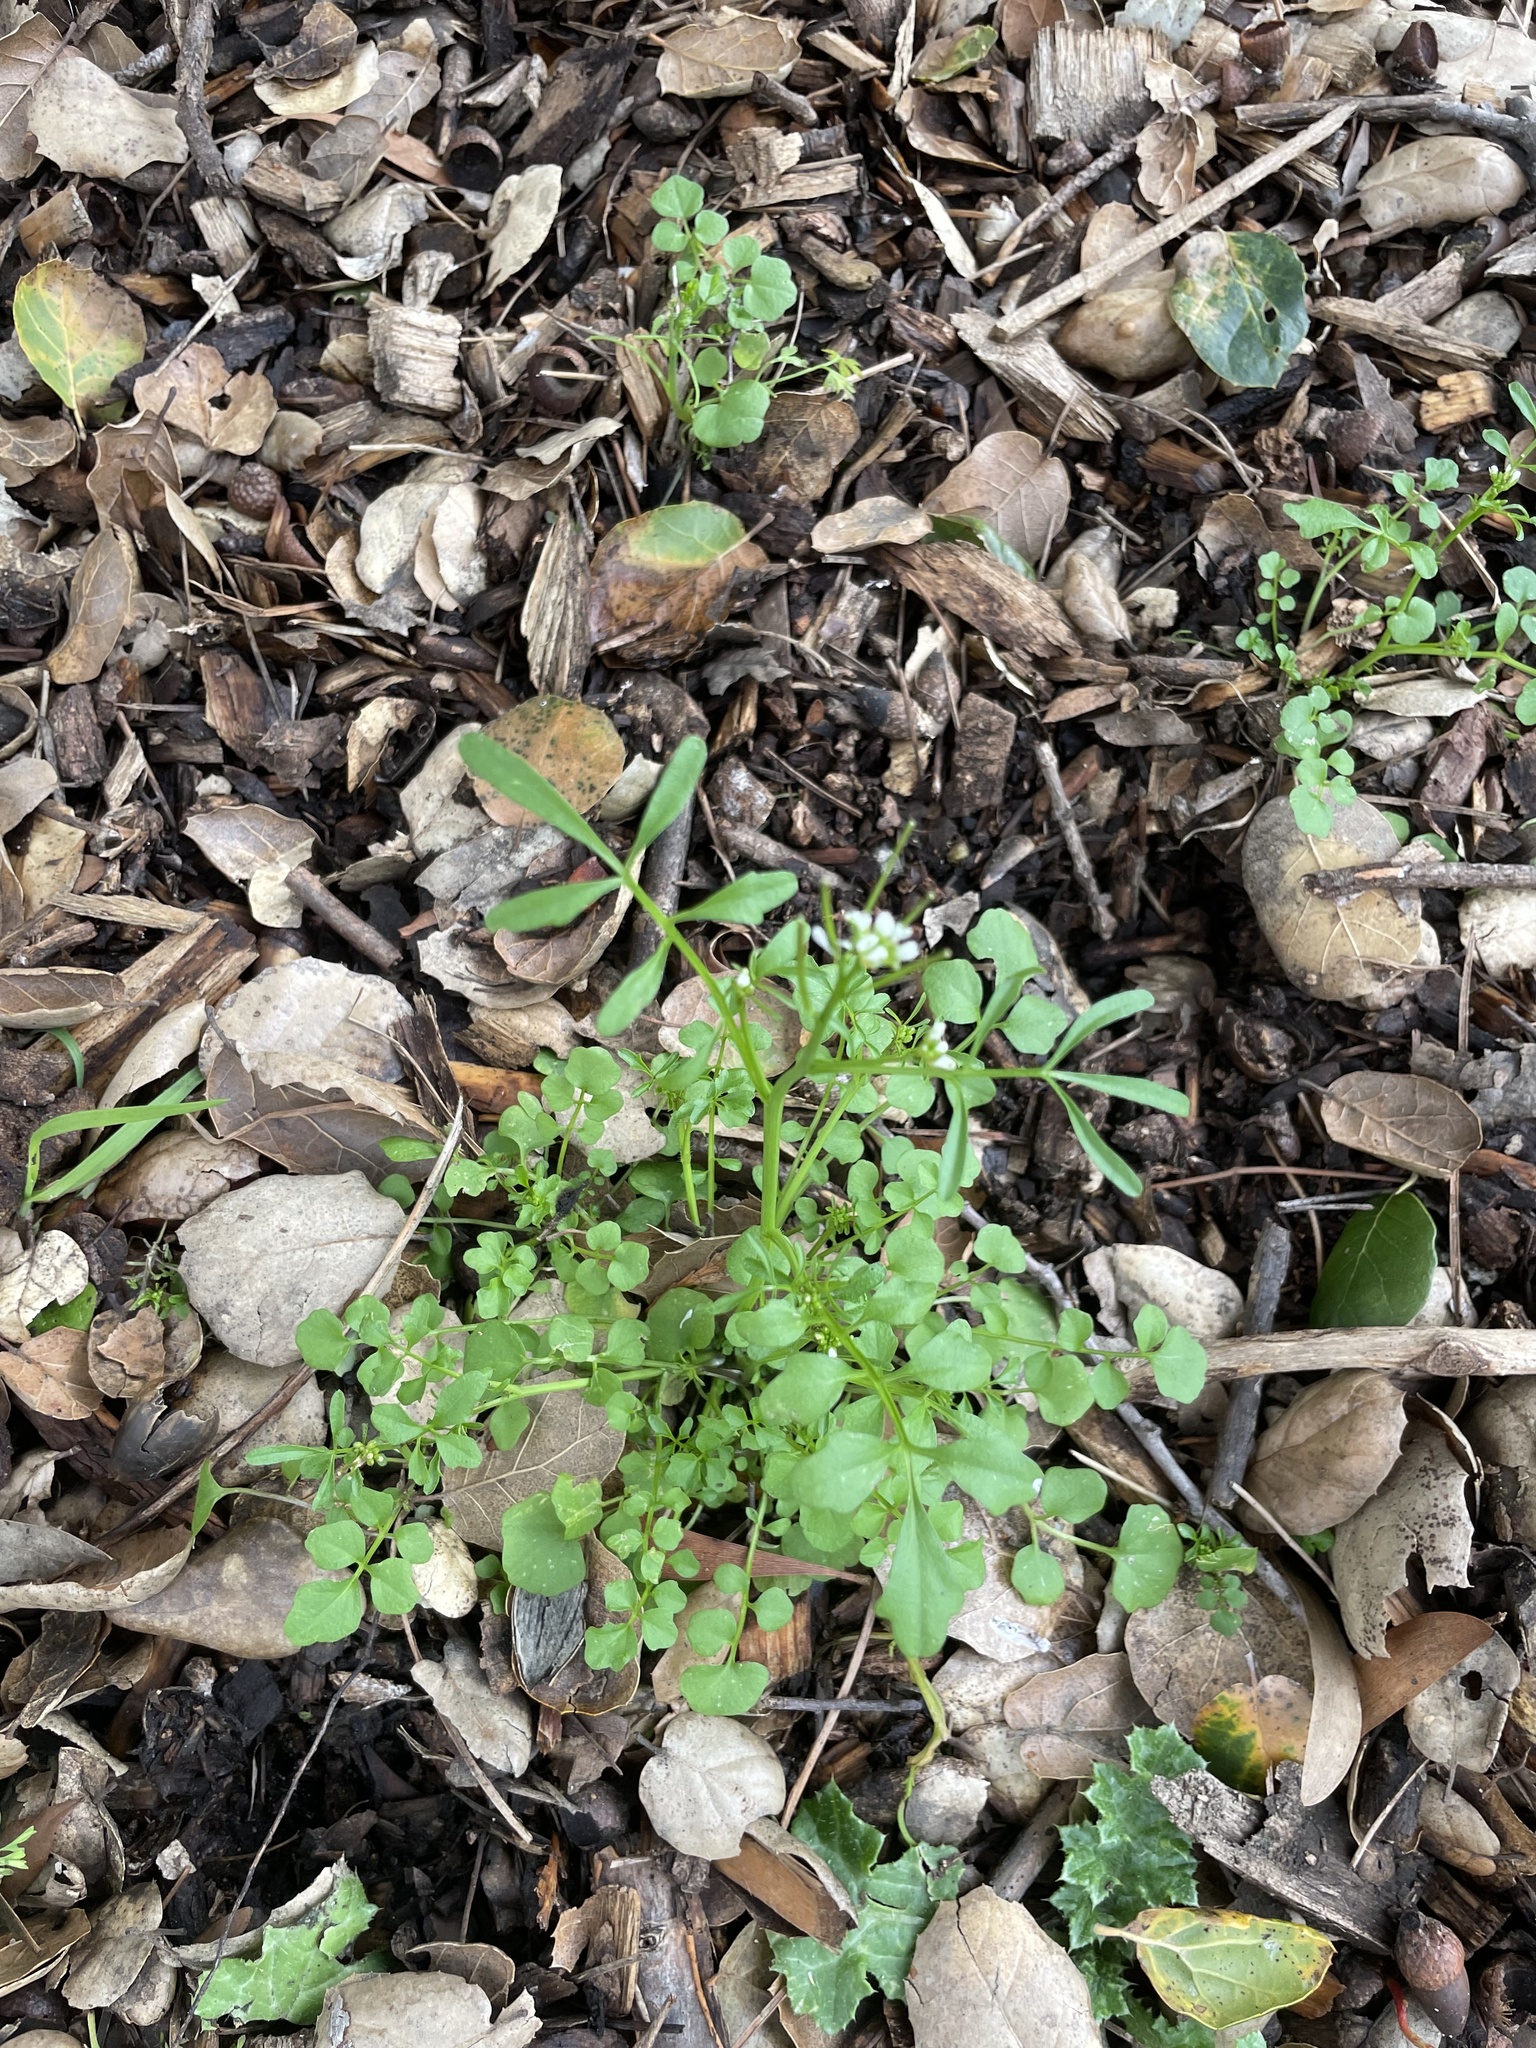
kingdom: Plantae
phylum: Tracheophyta
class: Magnoliopsida
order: Brassicales
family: Brassicaceae
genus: Cardamine
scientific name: Cardamine hirsuta
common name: Hairy bittercress
